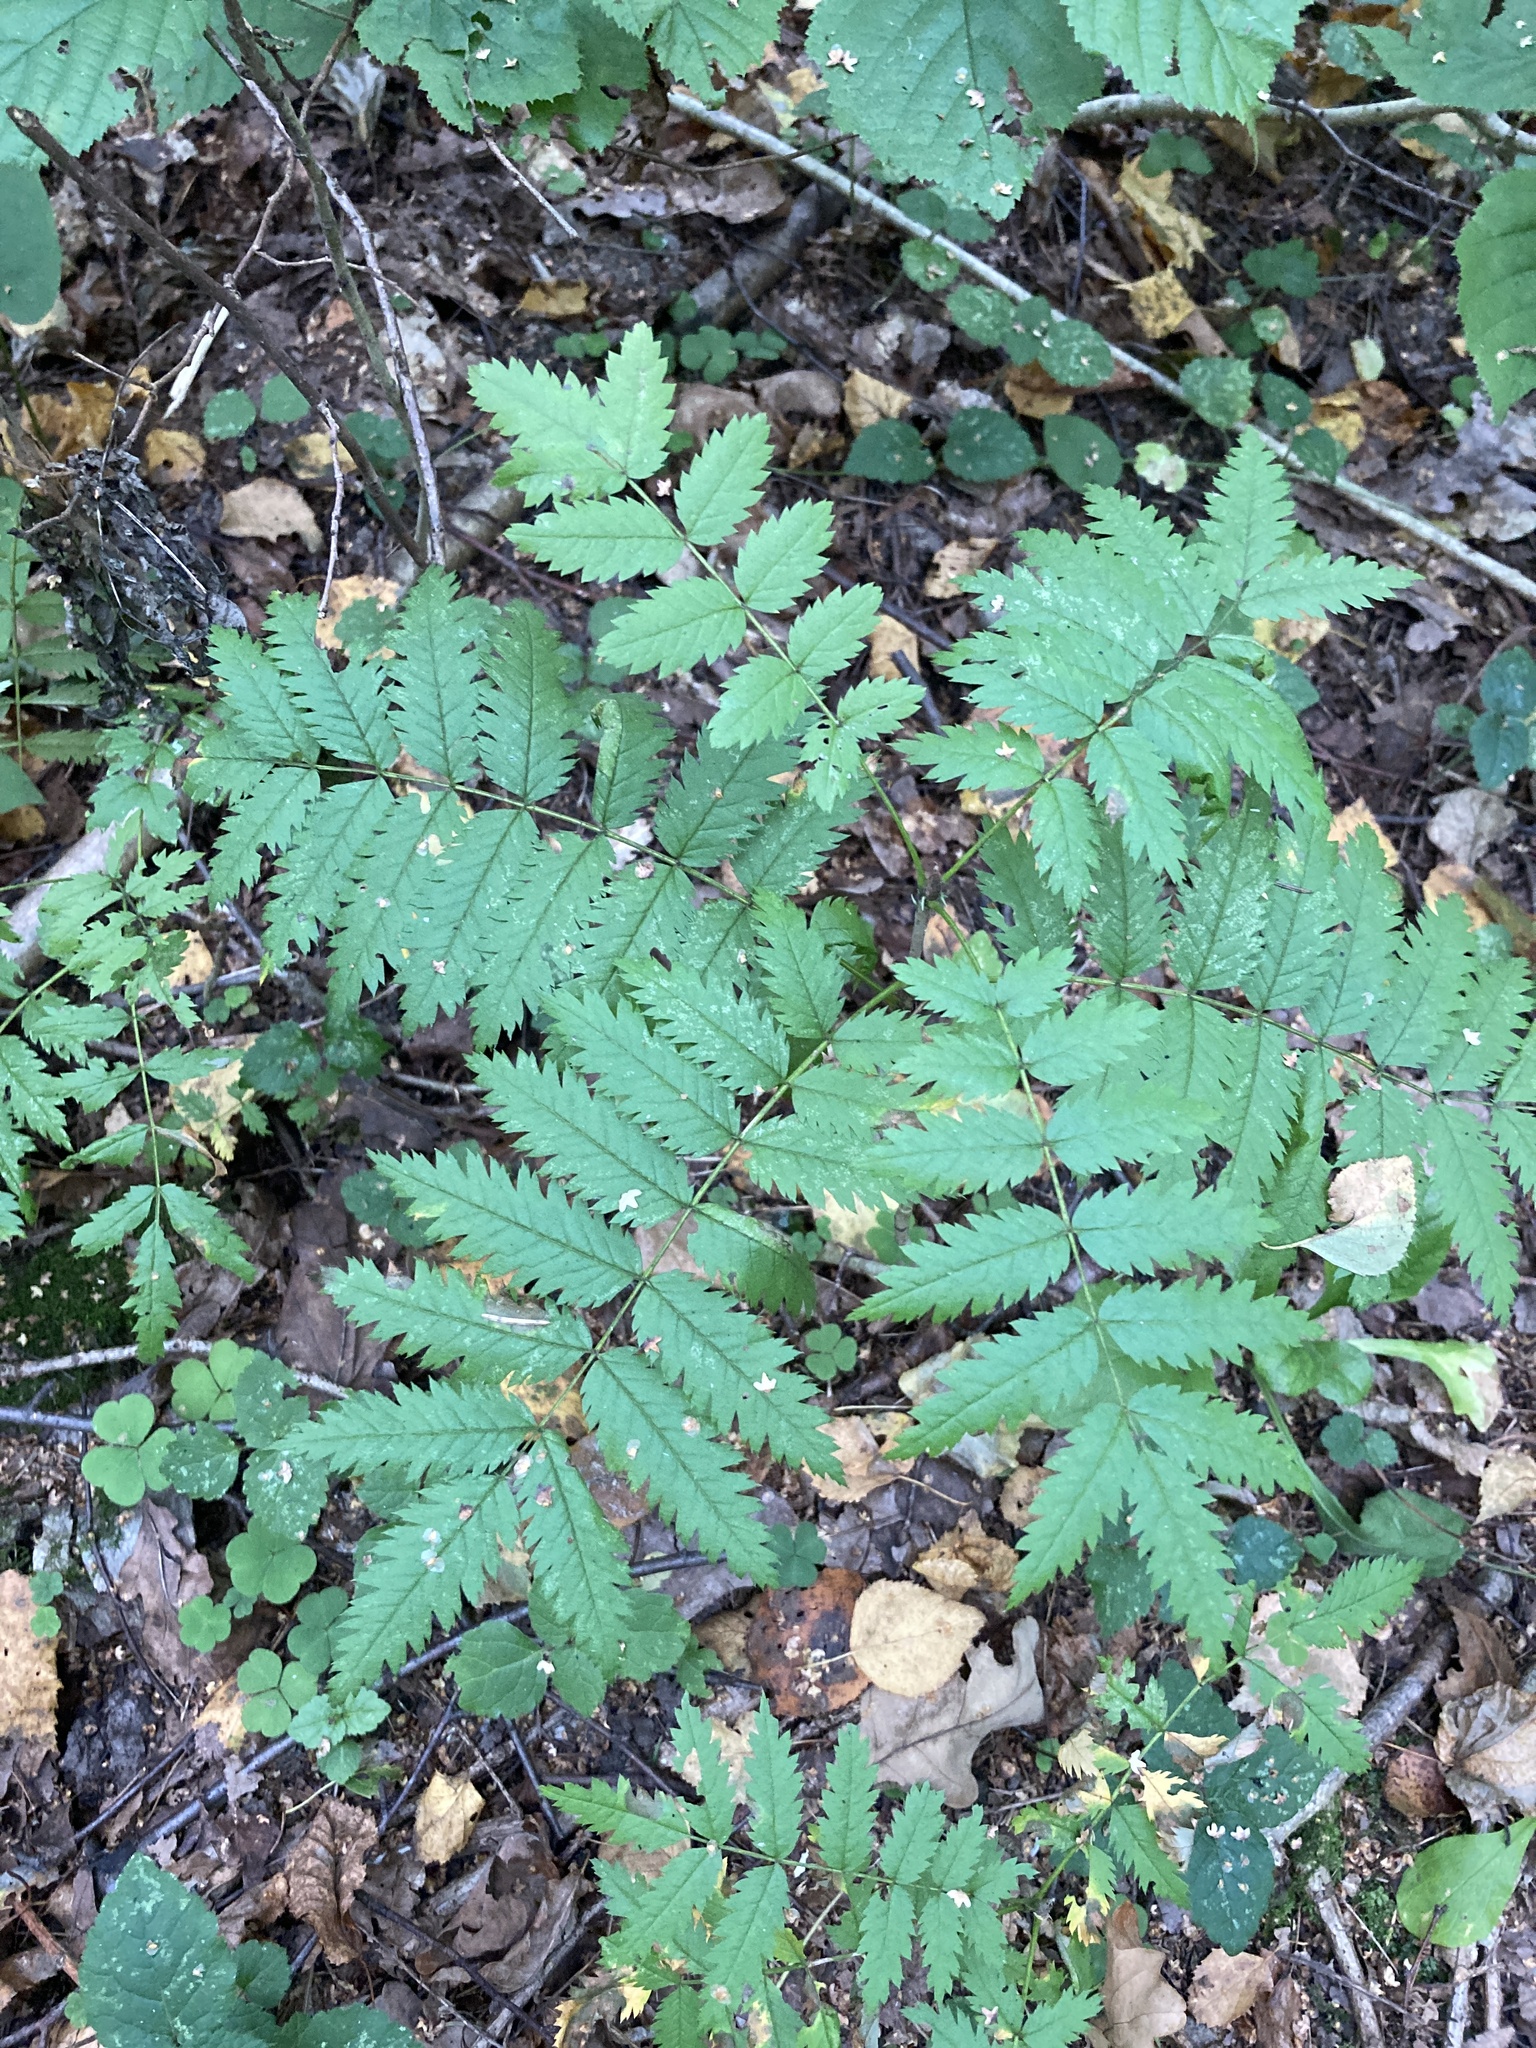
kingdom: Plantae
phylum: Tracheophyta
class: Magnoliopsida
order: Rosales
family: Rosaceae
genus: Sorbus
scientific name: Sorbus aucuparia
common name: Rowan
